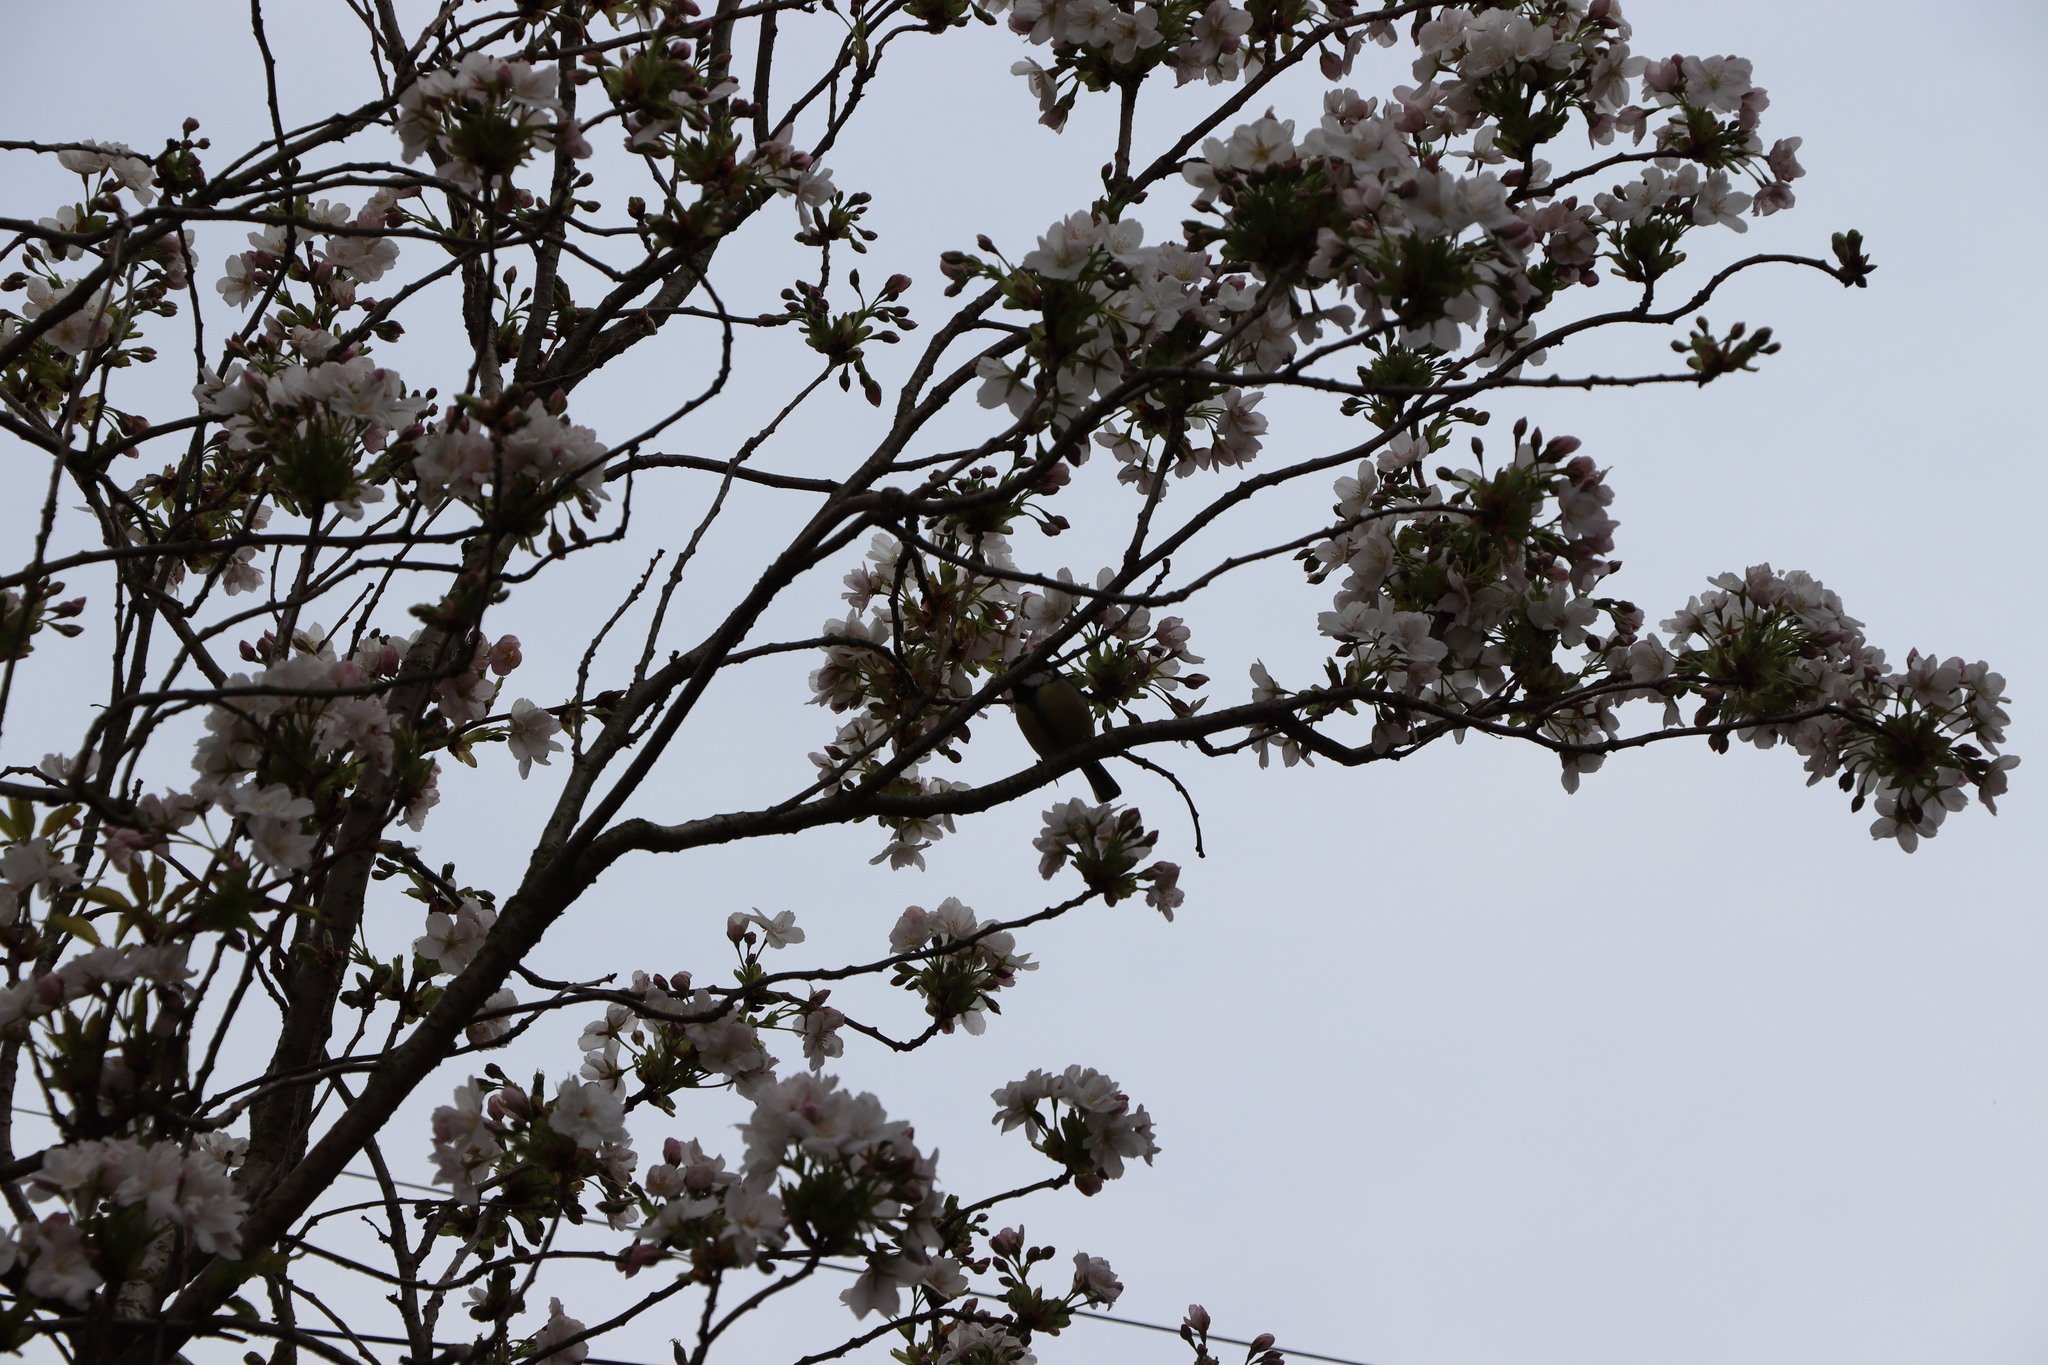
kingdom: Animalia
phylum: Chordata
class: Aves
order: Passeriformes
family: Paridae
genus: Parus
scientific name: Parus major
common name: Great tit
